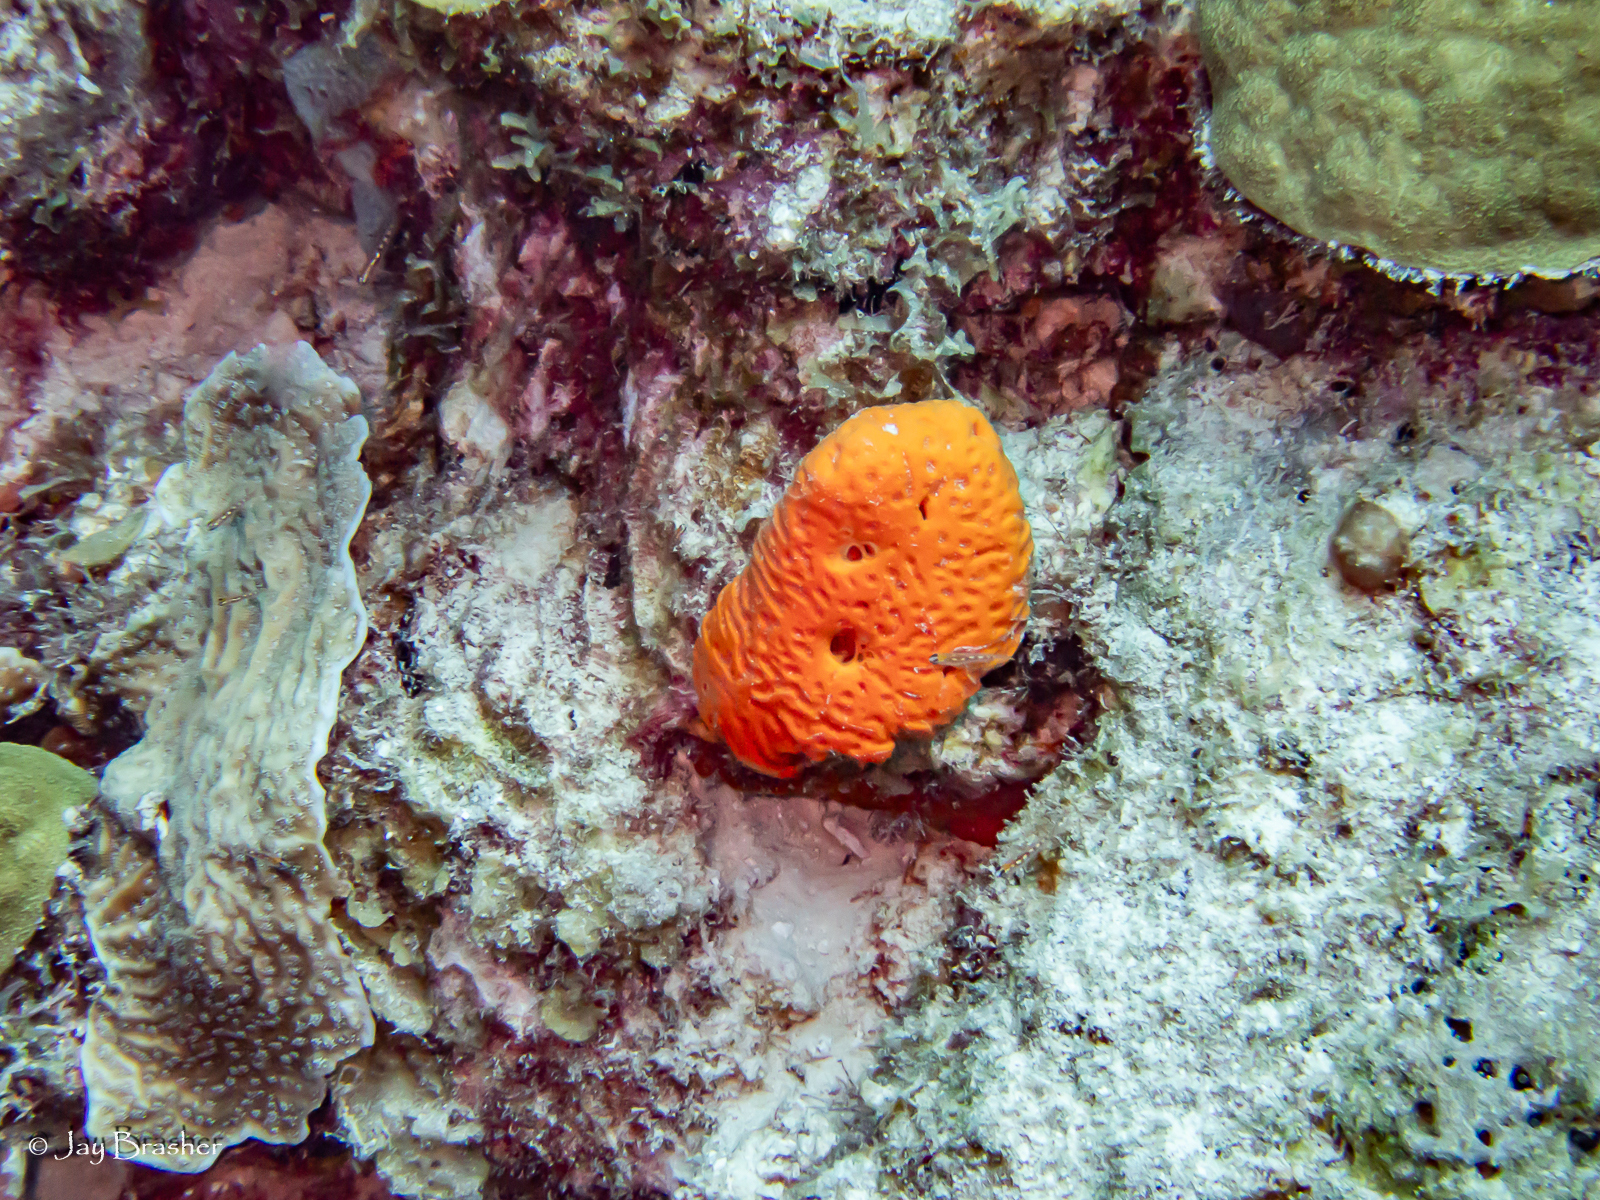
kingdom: Animalia
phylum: Porifera
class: Demospongiae
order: Agelasida
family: Agelasidae
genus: Agelas
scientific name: Agelas clathrodes
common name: Orange elephant ear sponge
